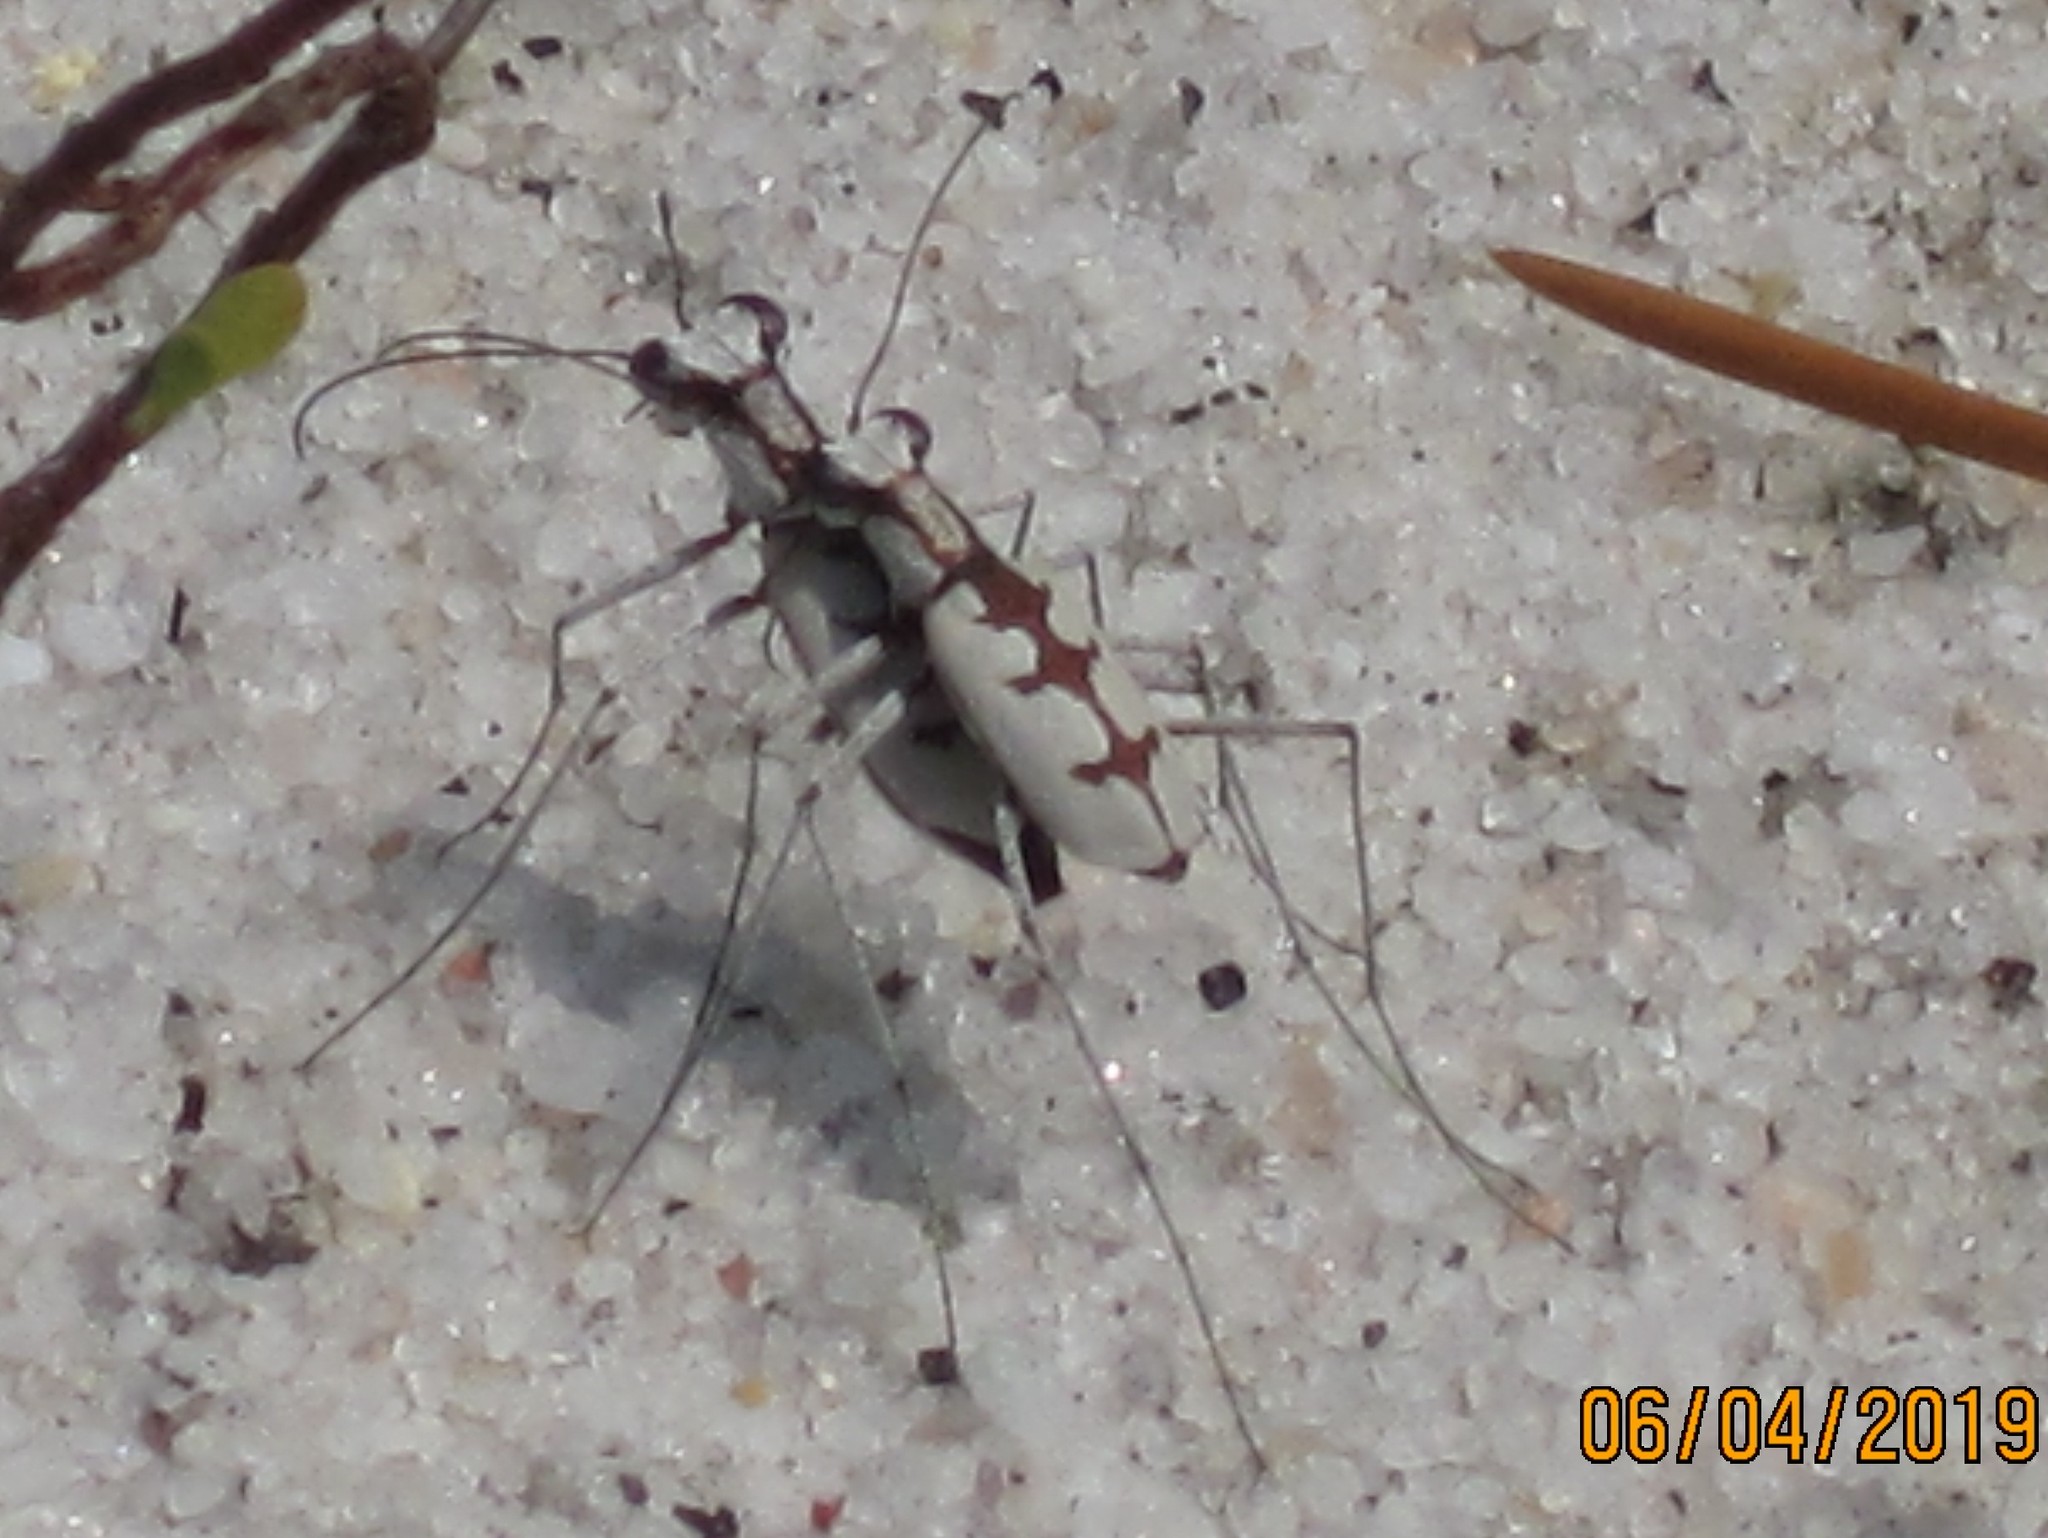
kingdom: Animalia
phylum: Arthropoda
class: Insecta
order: Coleoptera
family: Carabidae
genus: Ellipsoptera
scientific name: Ellipsoptera gratiosa
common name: Whitish tiger beetle
